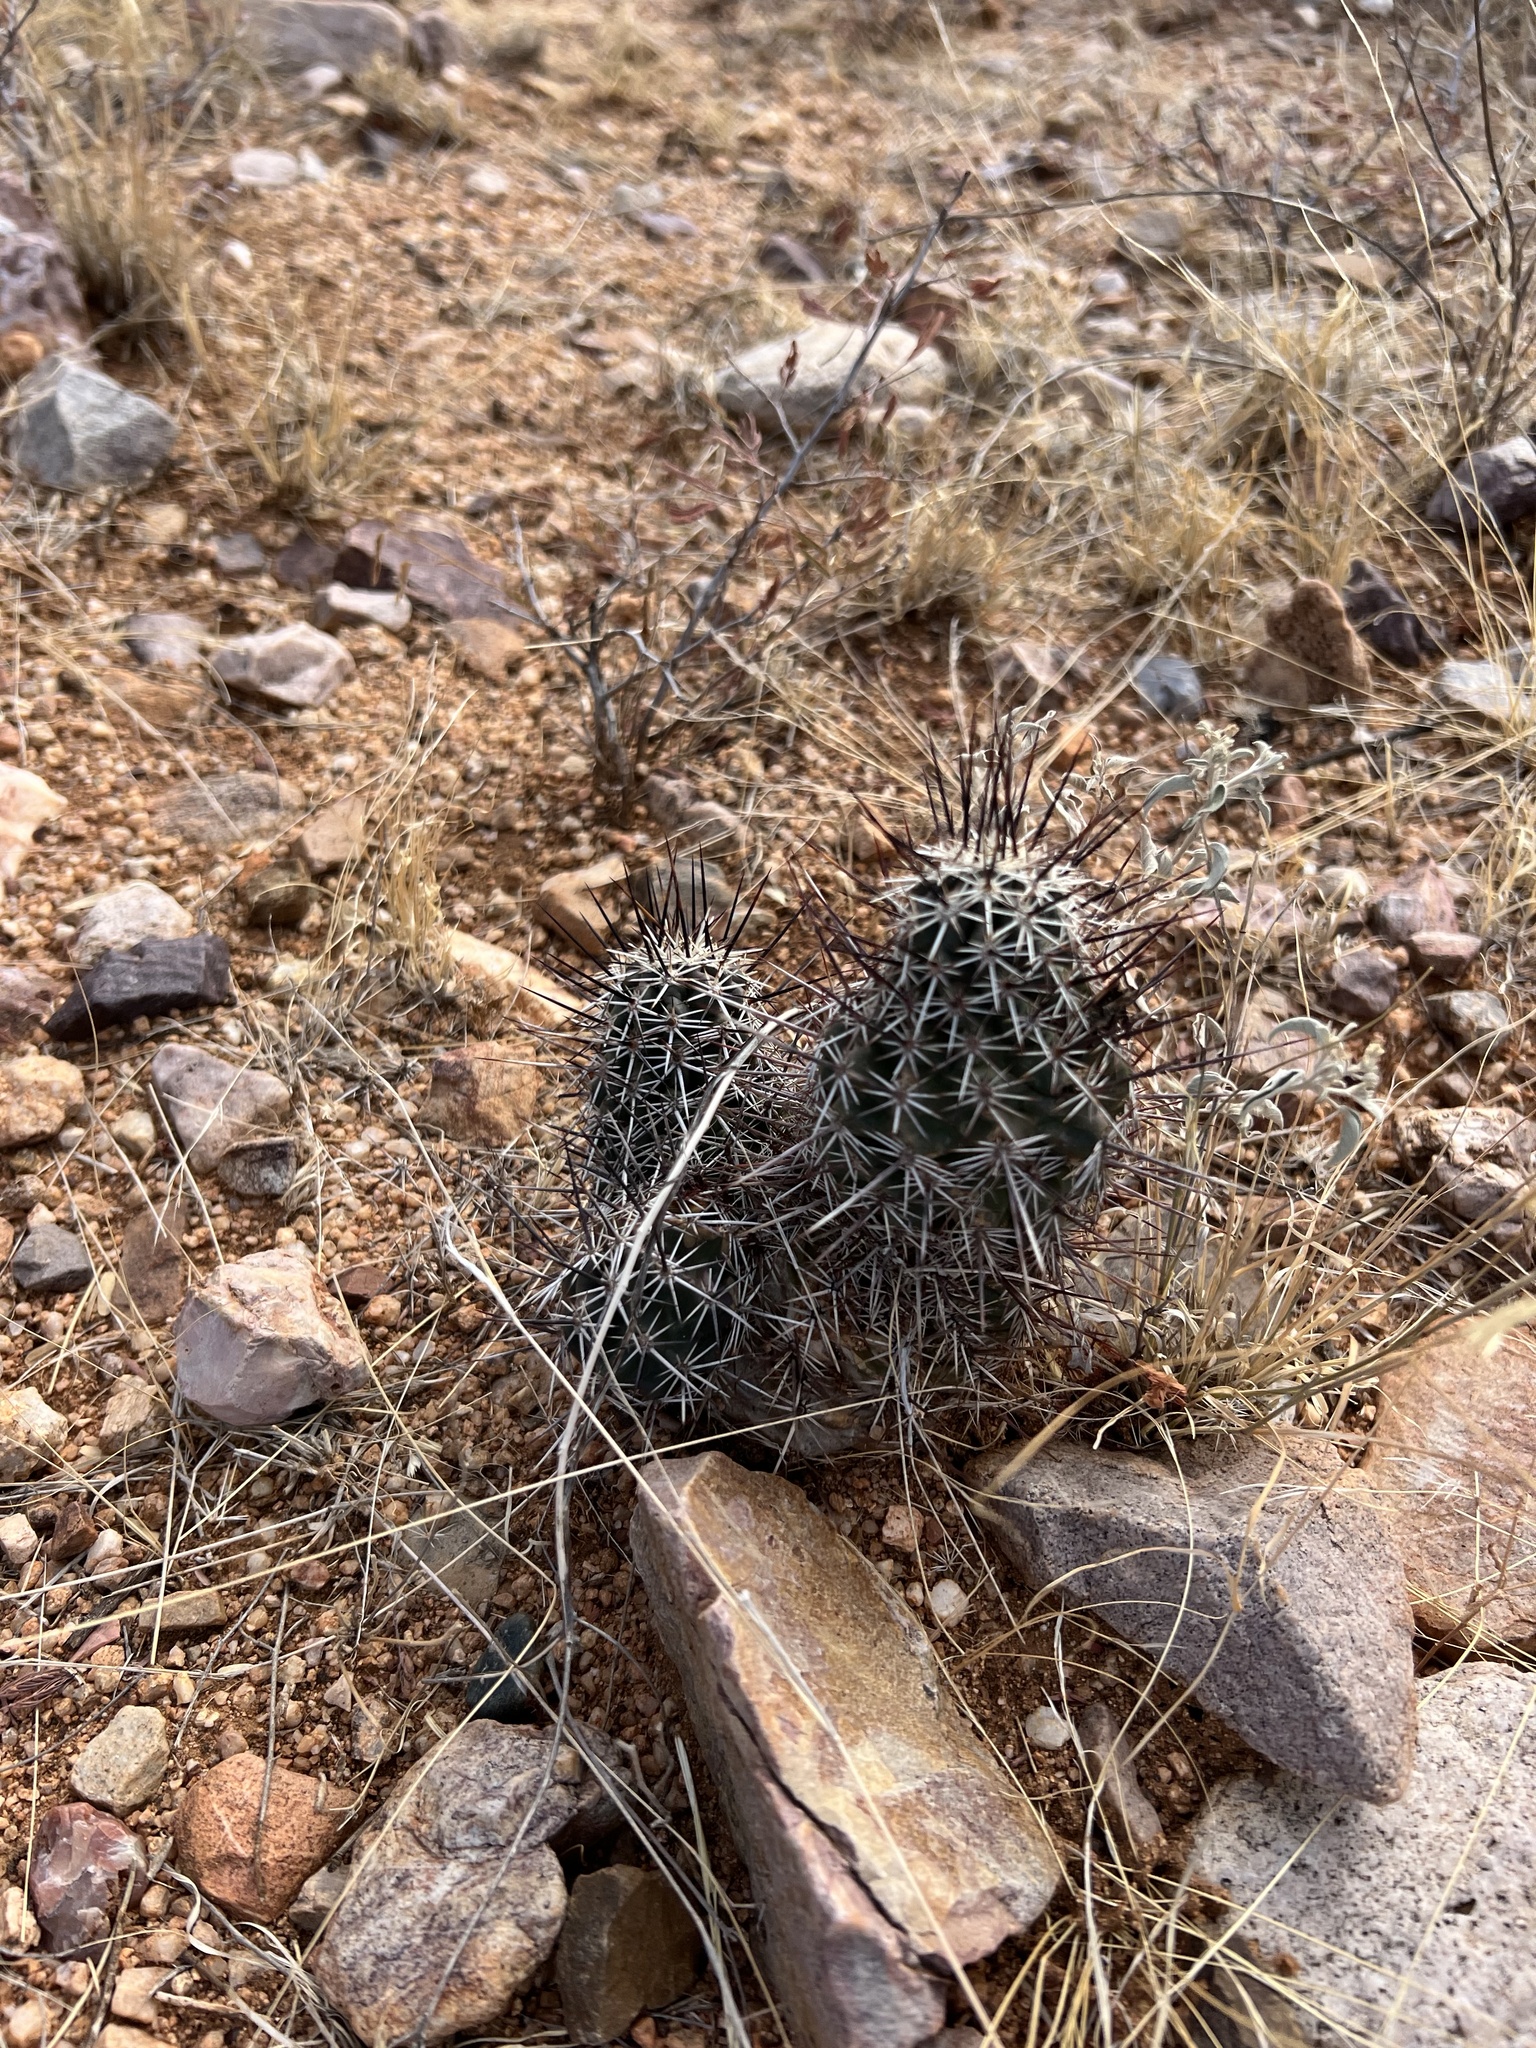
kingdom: Plantae
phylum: Tracheophyta
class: Magnoliopsida
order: Caryophyllales
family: Cactaceae
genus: Echinocereus
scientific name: Echinocereus fasciculatus
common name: Bundle hedgehog
